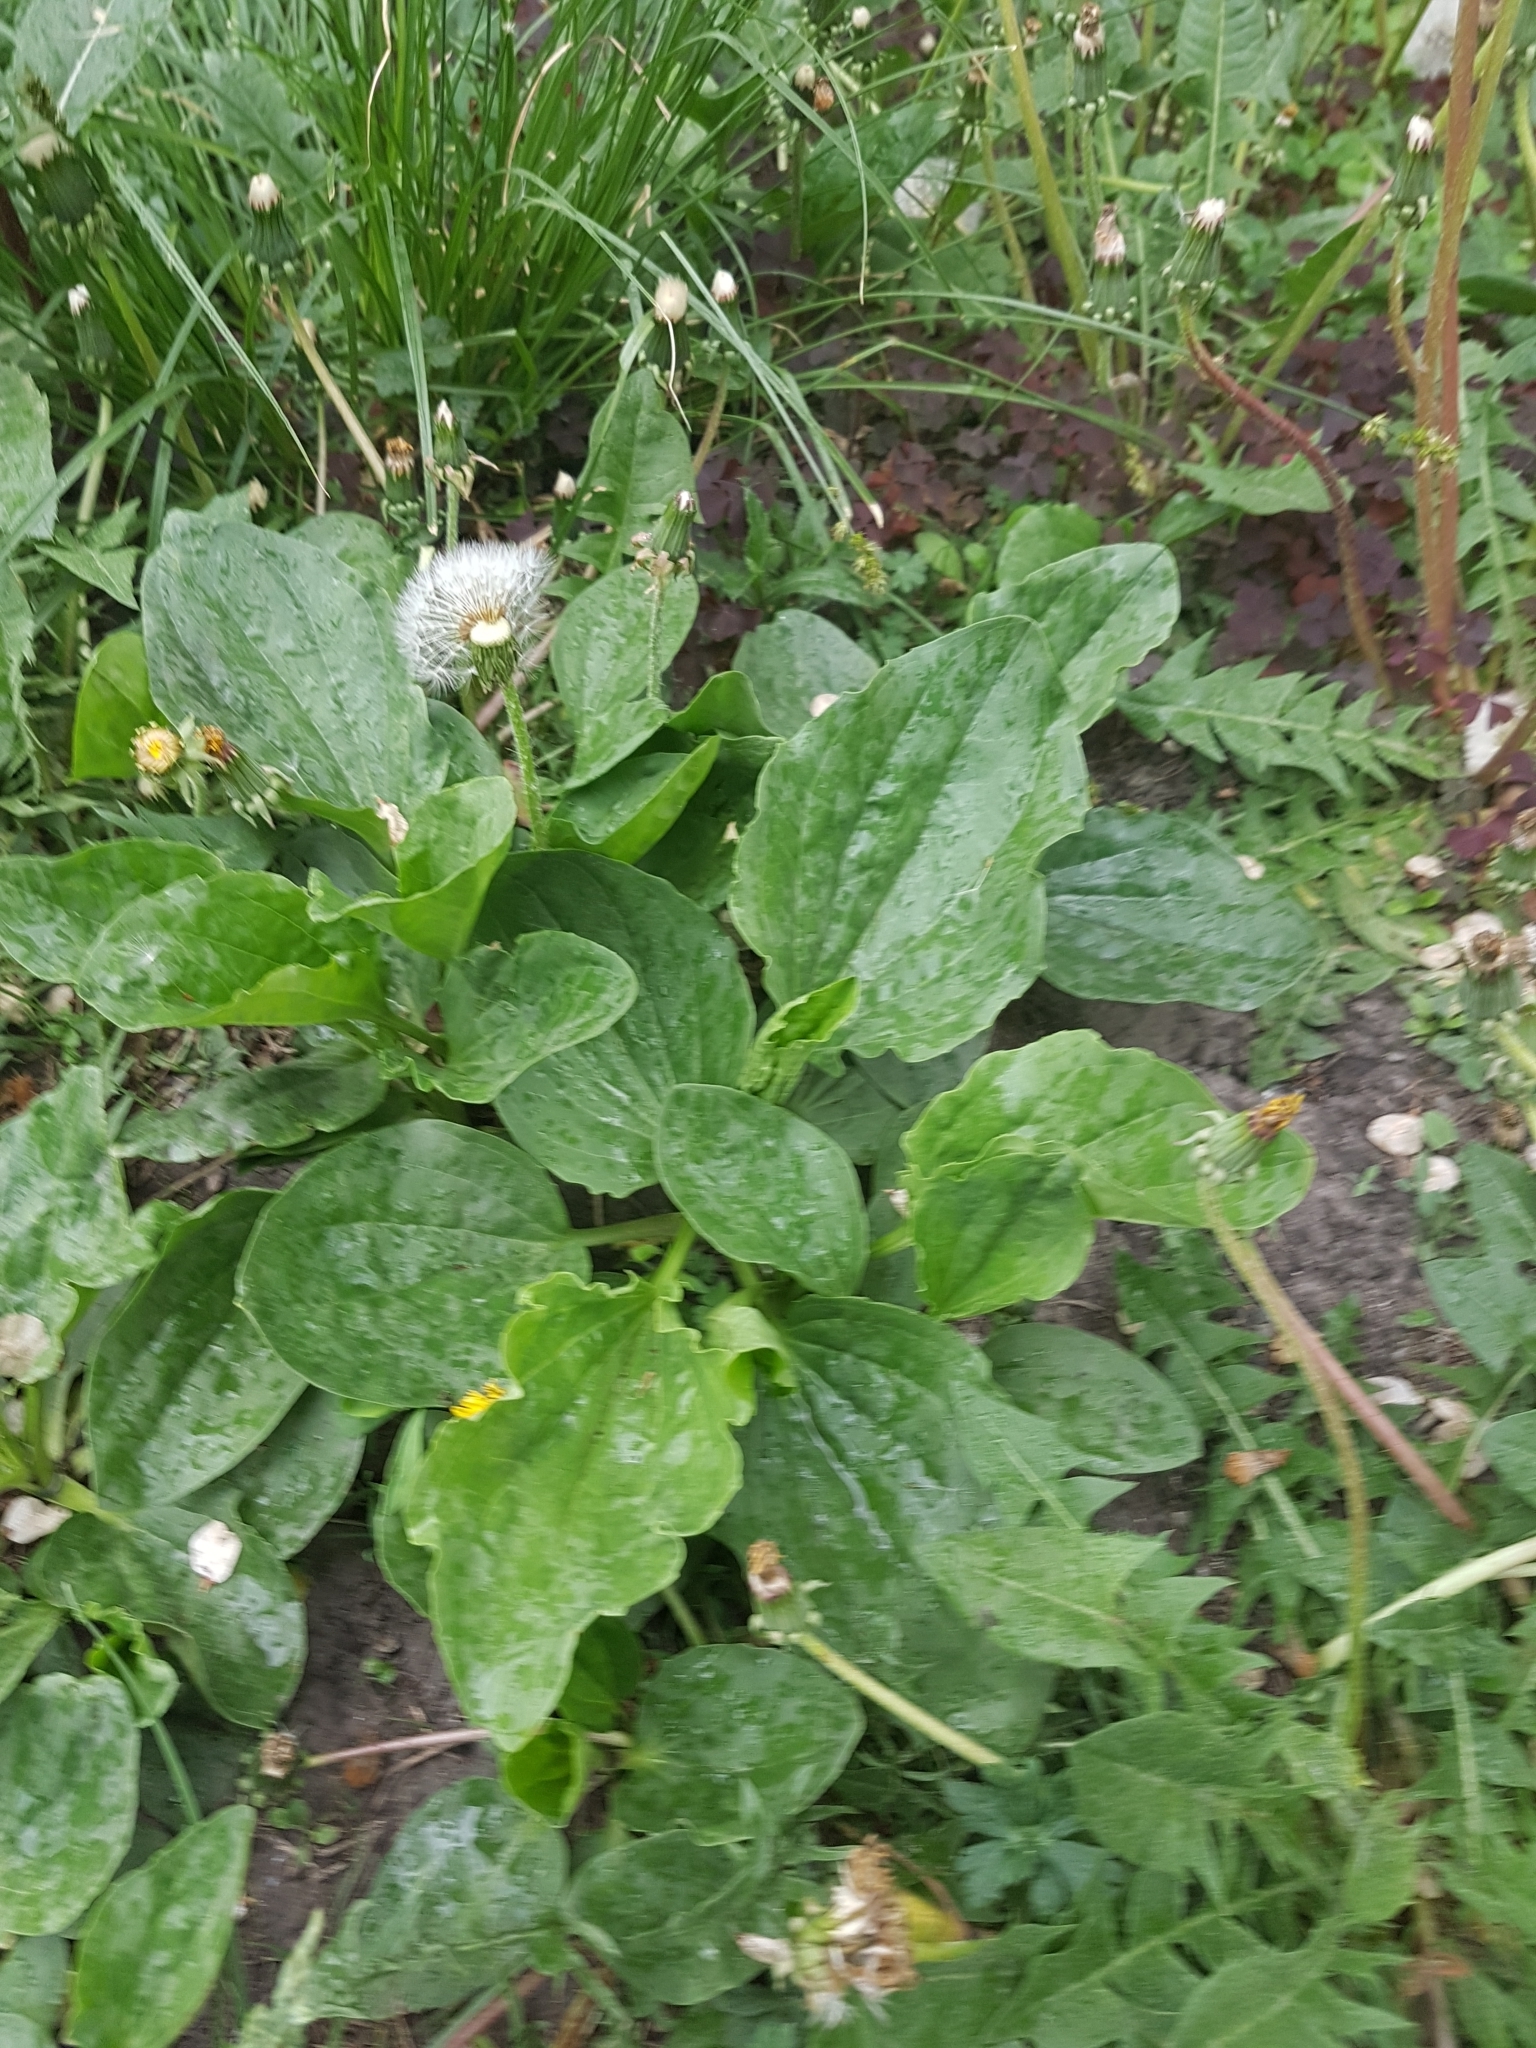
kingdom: Plantae
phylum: Tracheophyta
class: Magnoliopsida
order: Lamiales
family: Plantaginaceae
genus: Plantago
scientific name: Plantago major
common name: Common plantain
